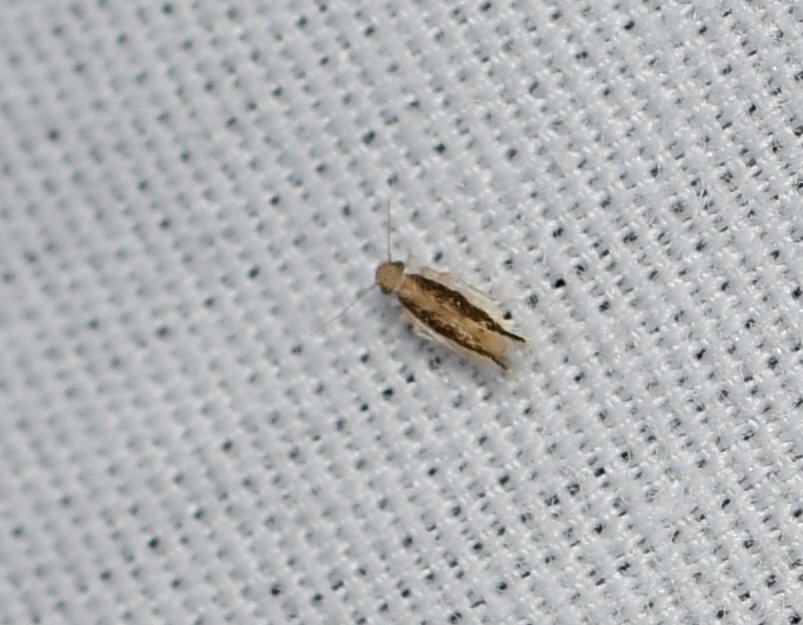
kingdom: Animalia
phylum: Arthropoda
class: Insecta
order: Psocodea
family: Lepidopsocidae
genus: Echmepteryx
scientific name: Echmepteryx madagascariensis
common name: Bark lice
